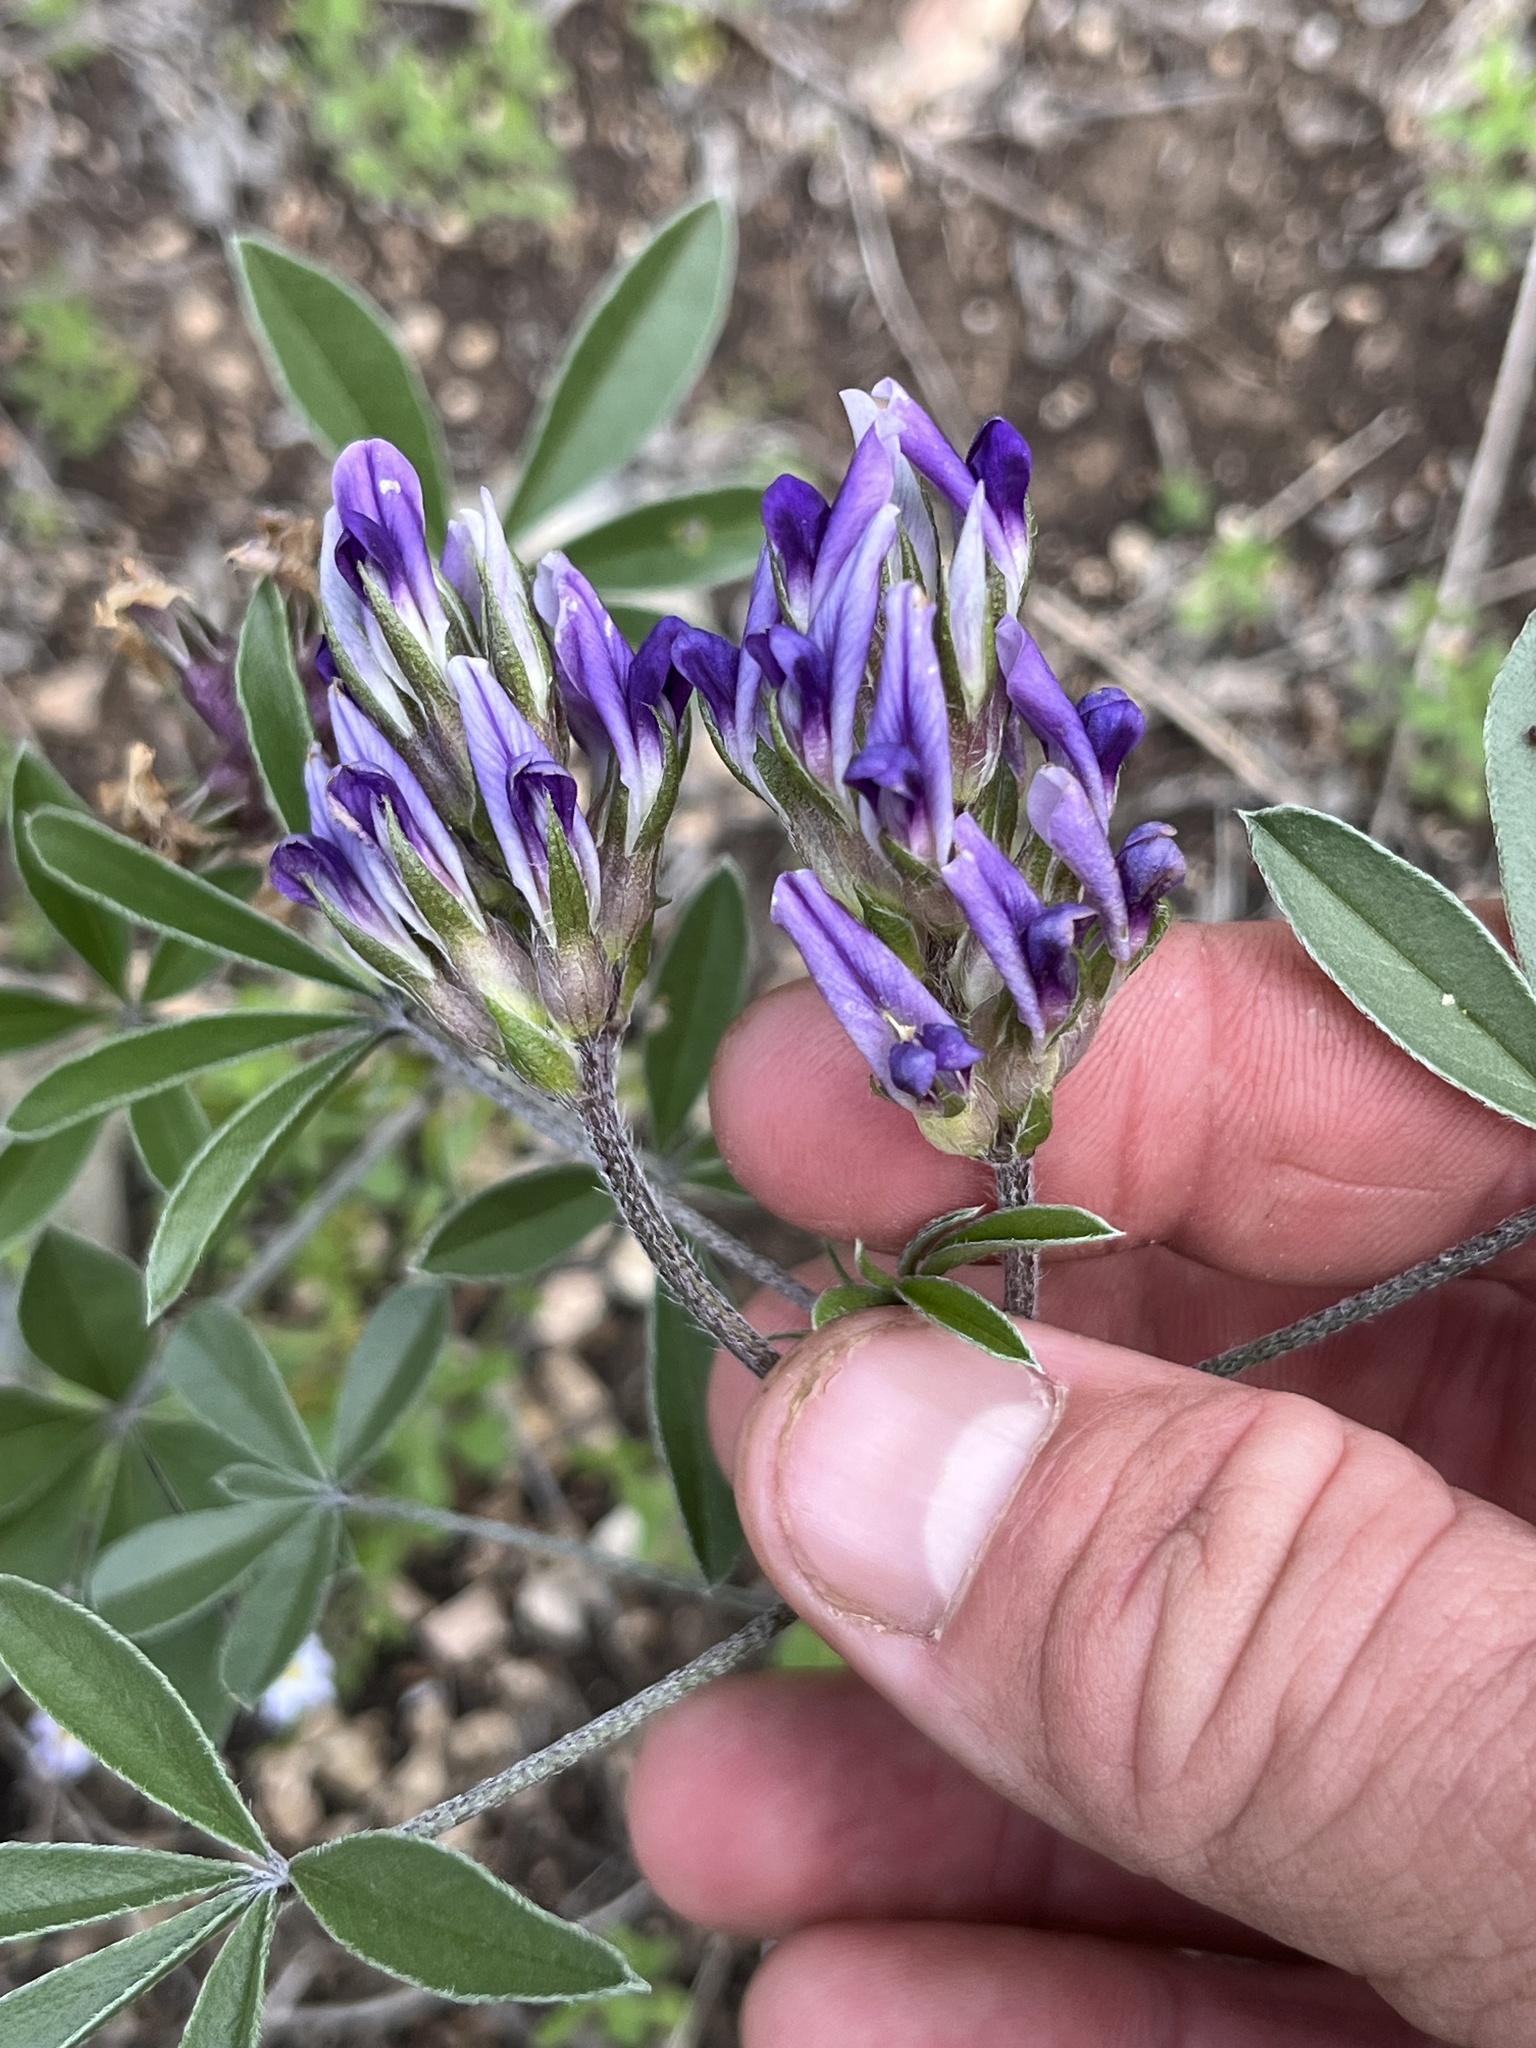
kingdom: Plantae
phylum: Tracheophyta
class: Magnoliopsida
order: Fabales
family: Fabaceae
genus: Pediomelum
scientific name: Pediomelum latestipulatum
